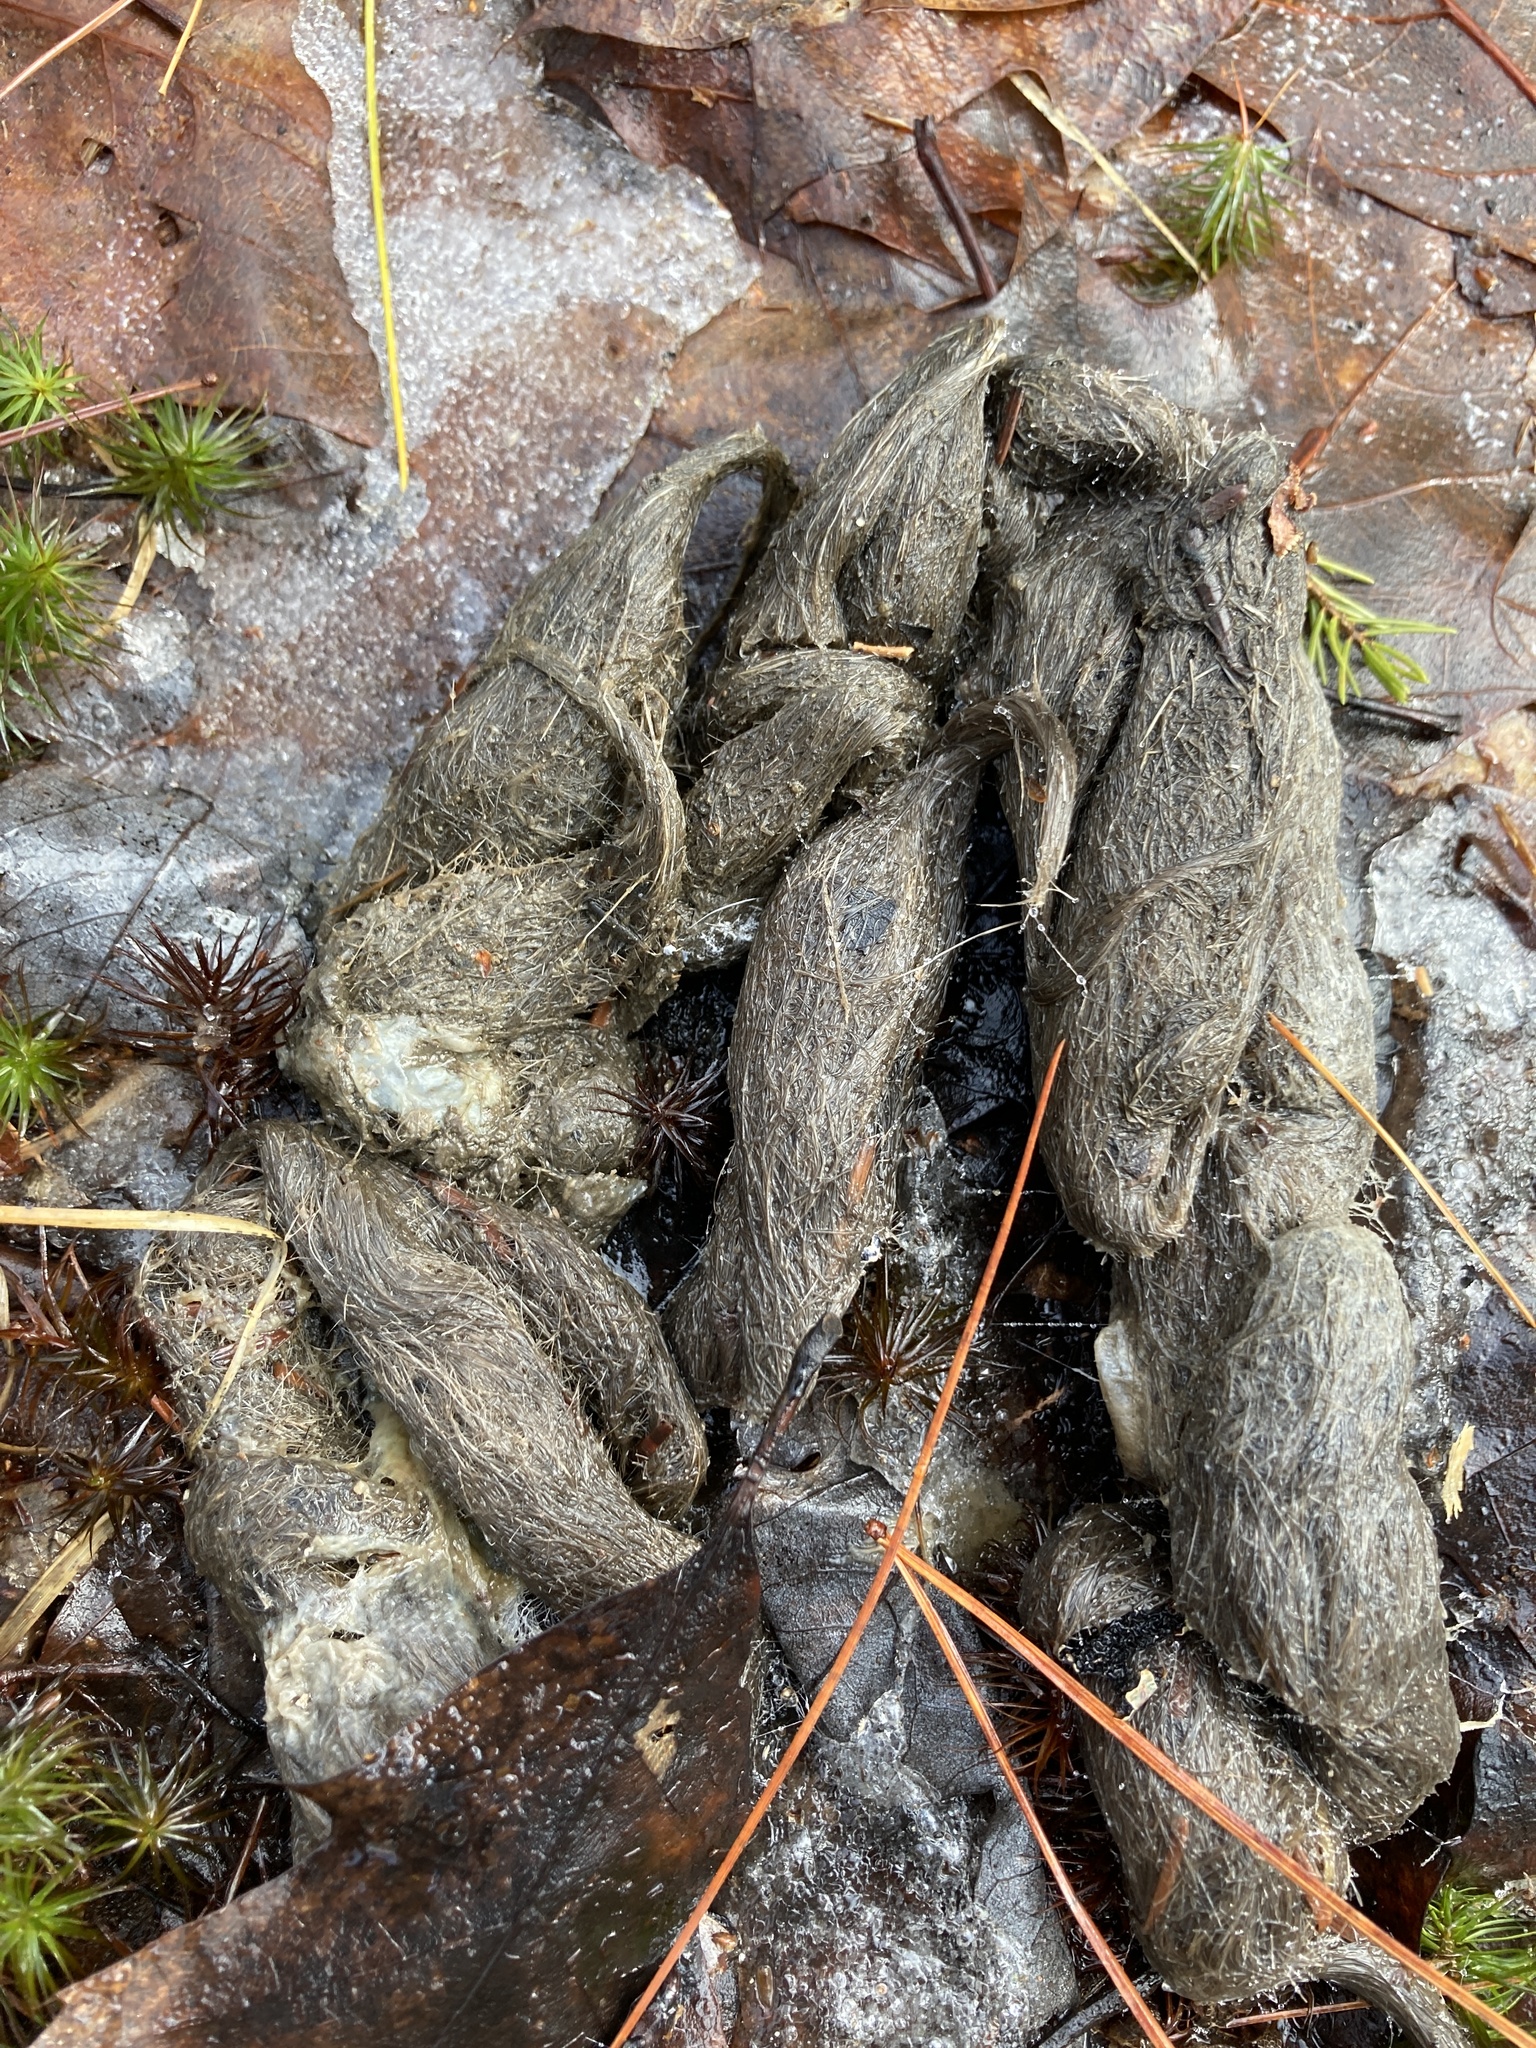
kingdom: Animalia
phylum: Chordata
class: Mammalia
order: Carnivora
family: Canidae
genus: Canis
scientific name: Canis latrans
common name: Coyote
